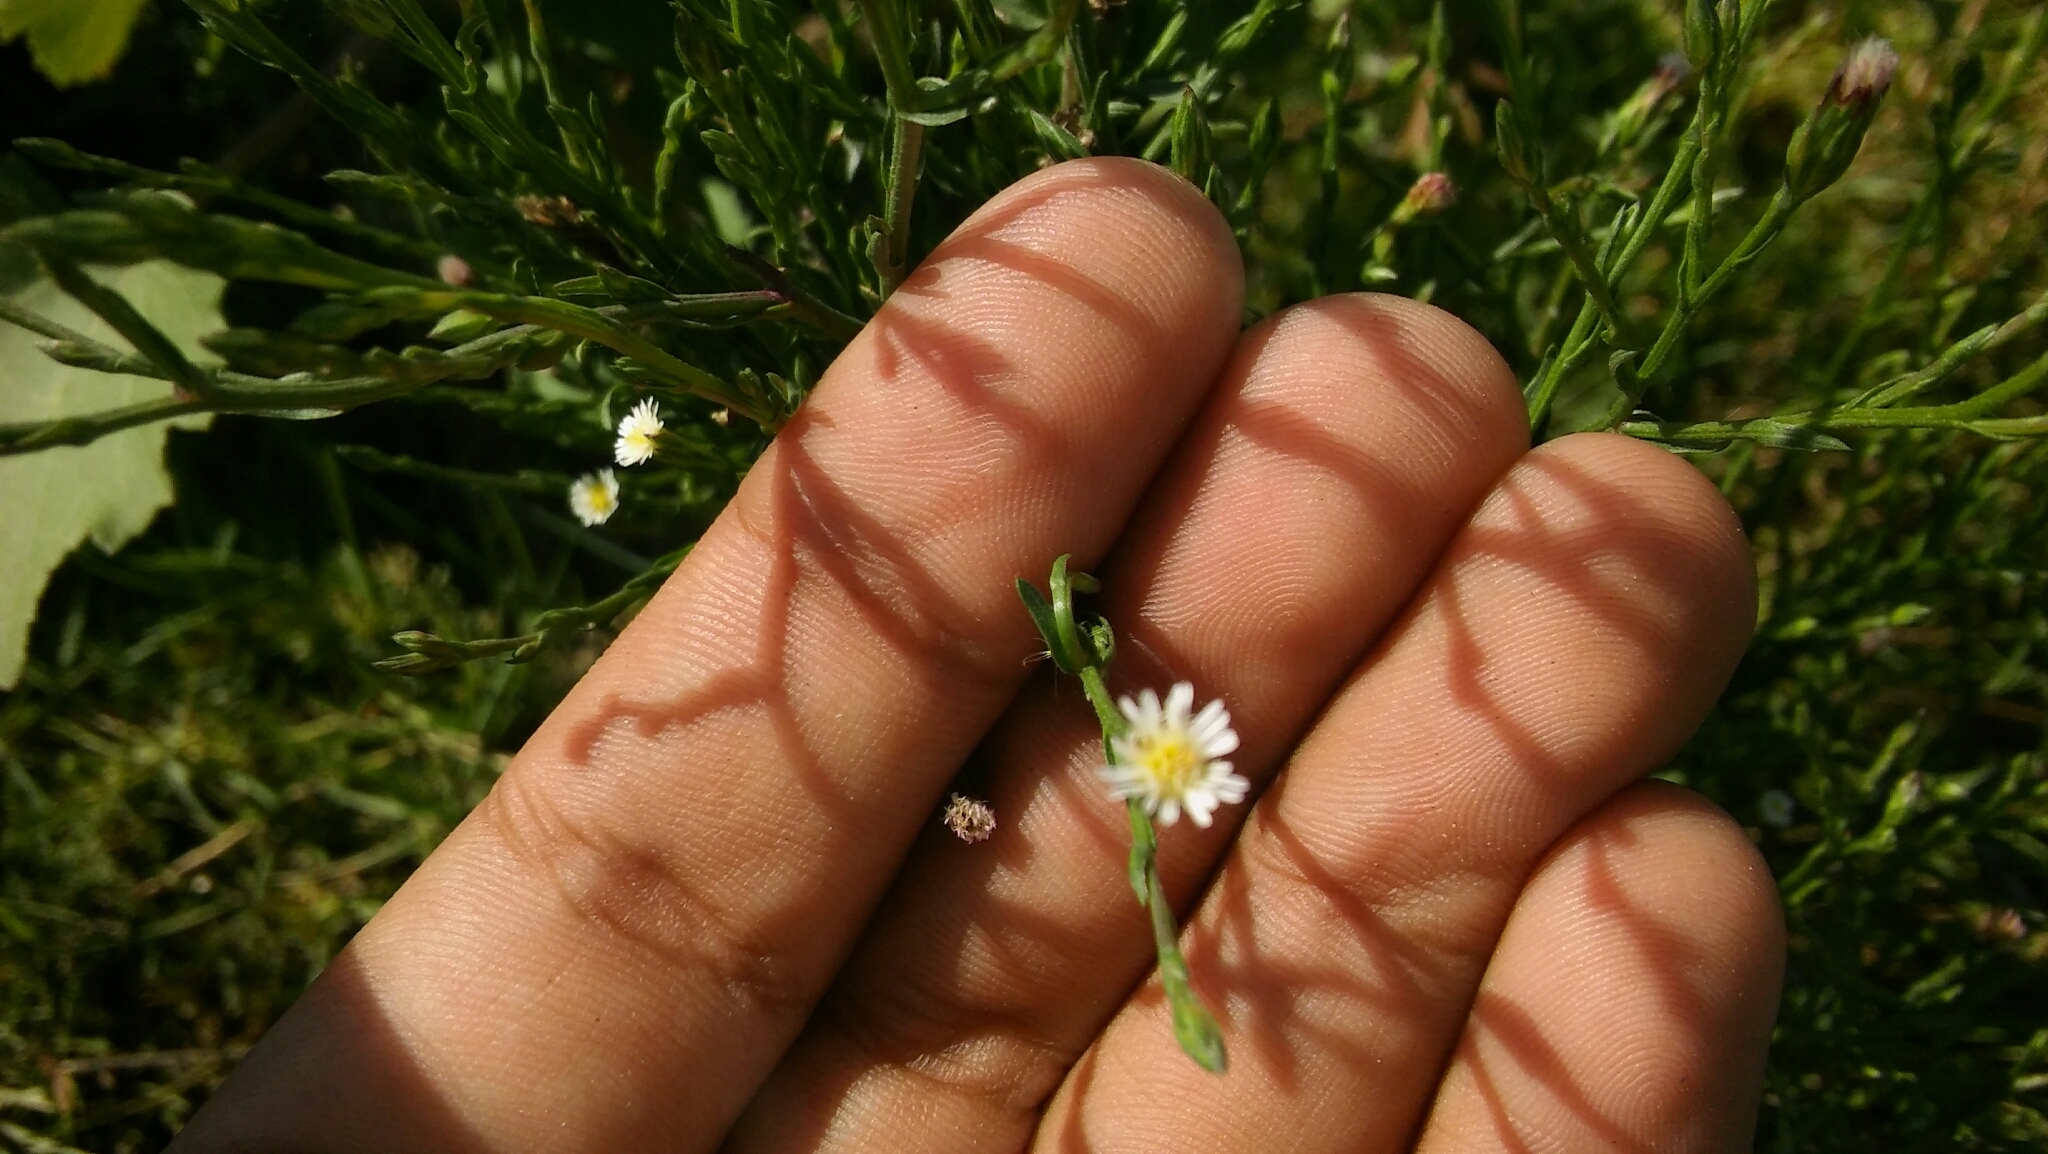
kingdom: Plantae
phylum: Tracheophyta
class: Magnoliopsida
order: Asterales
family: Asteraceae
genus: Symphyotrichum
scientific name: Symphyotrichum squamatum
